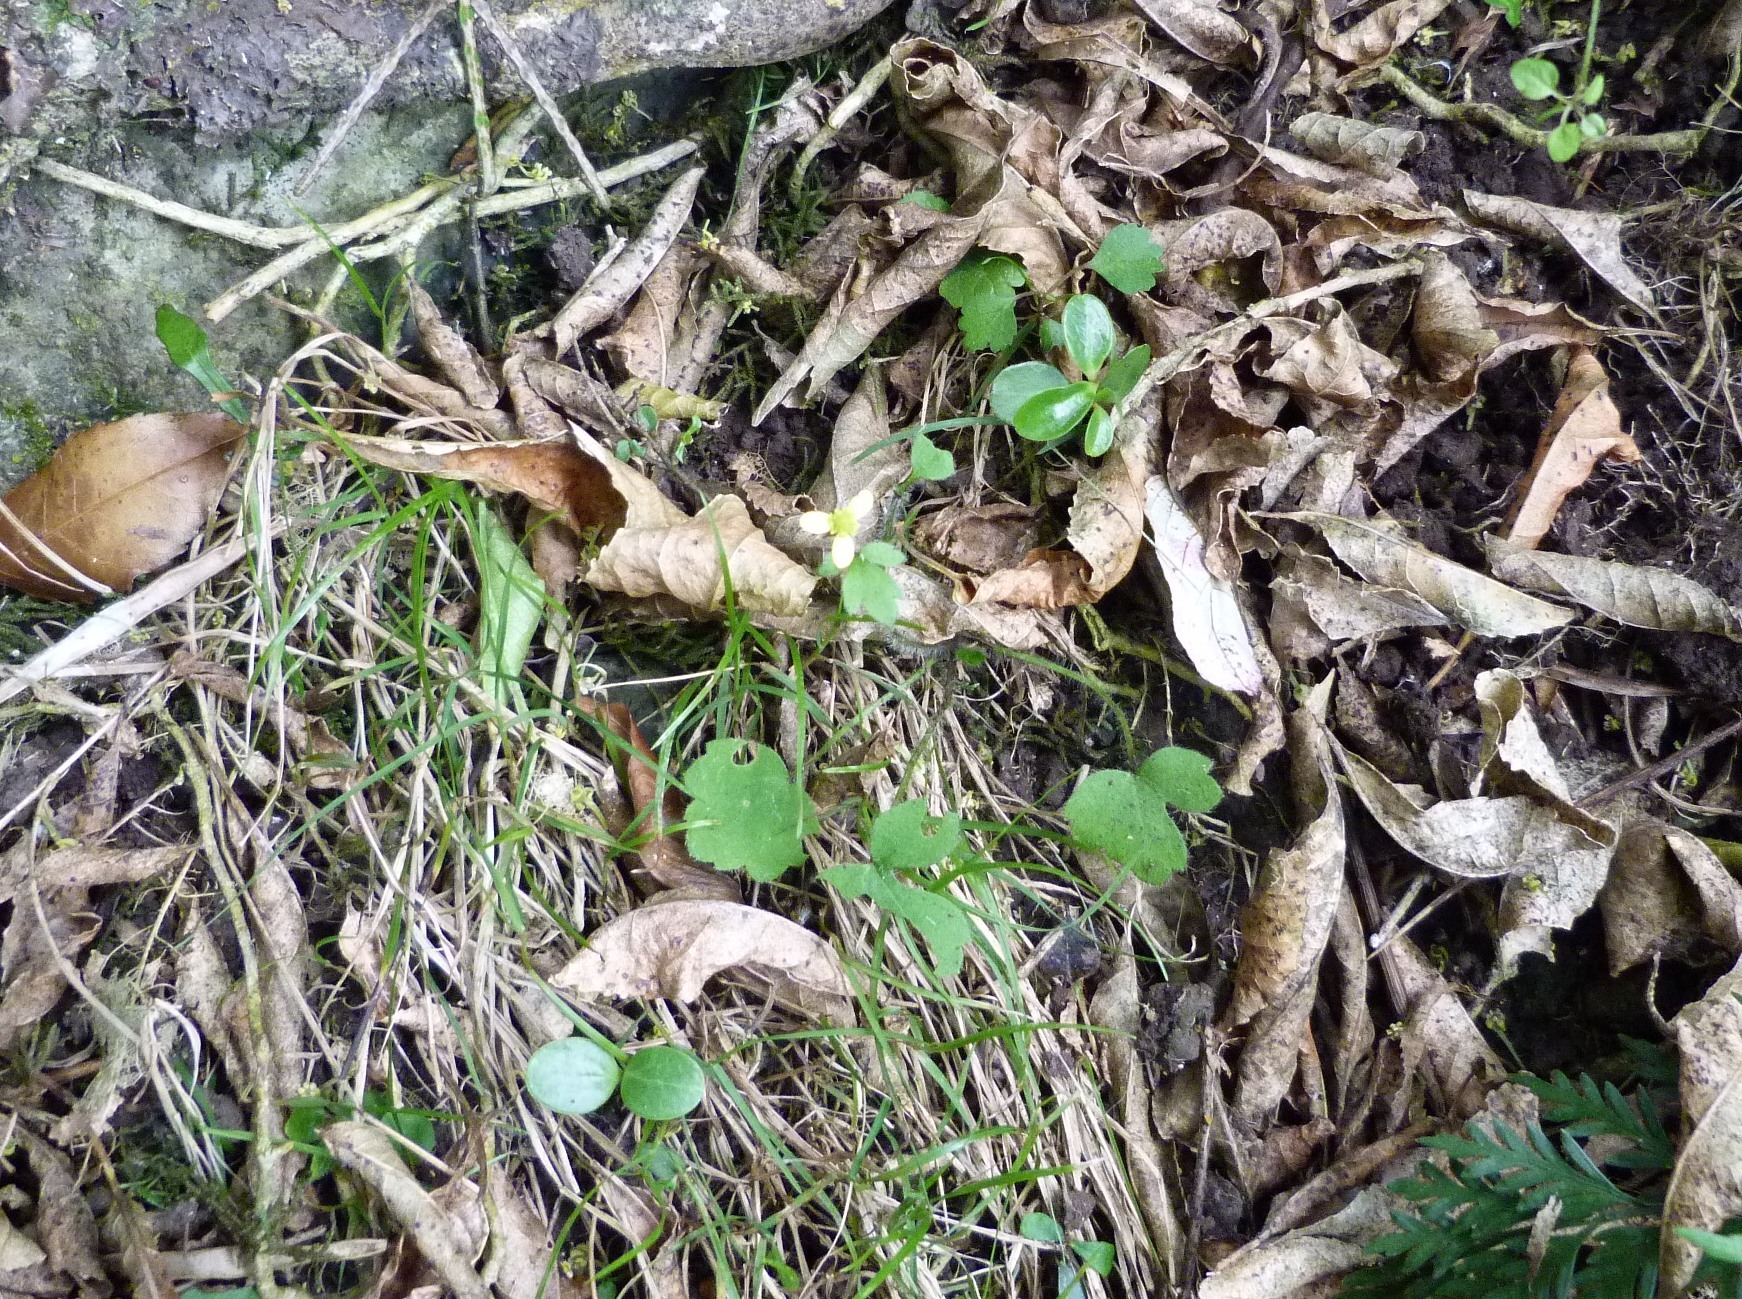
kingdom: Plantae
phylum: Tracheophyta
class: Magnoliopsida
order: Ranunculales
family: Ranunculaceae
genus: Ranunculus
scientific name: Ranunculus reflexus
